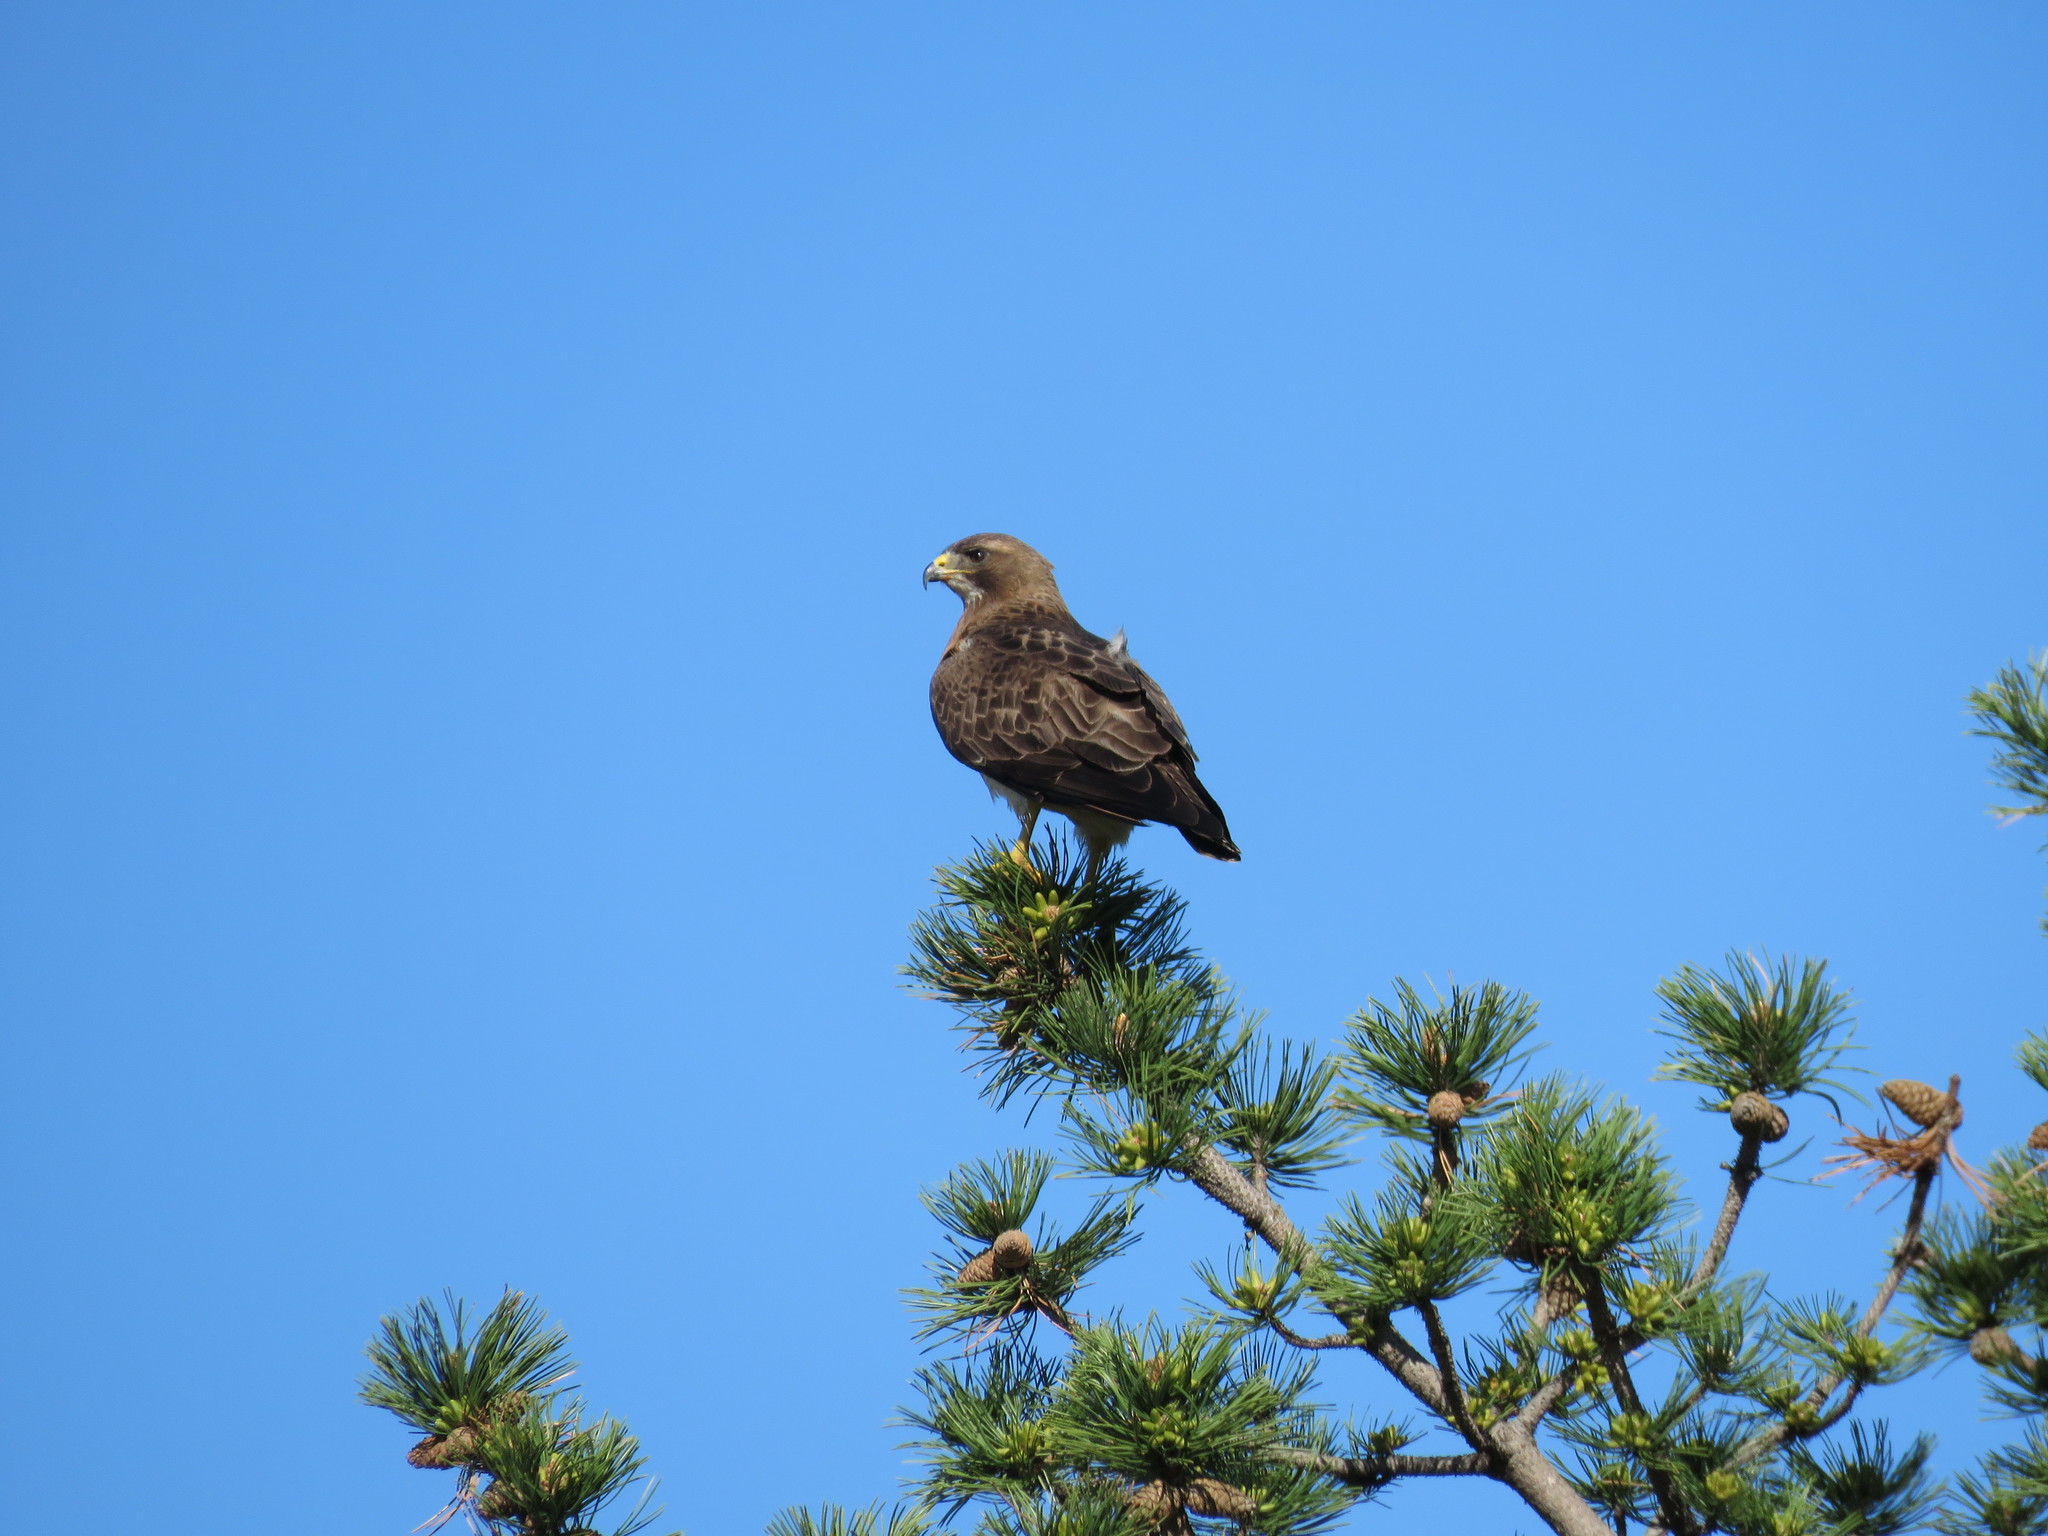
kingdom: Animalia
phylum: Chordata
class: Aves
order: Accipitriformes
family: Accipitridae
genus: Buteo
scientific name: Buteo swainsoni
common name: Swainson's hawk
